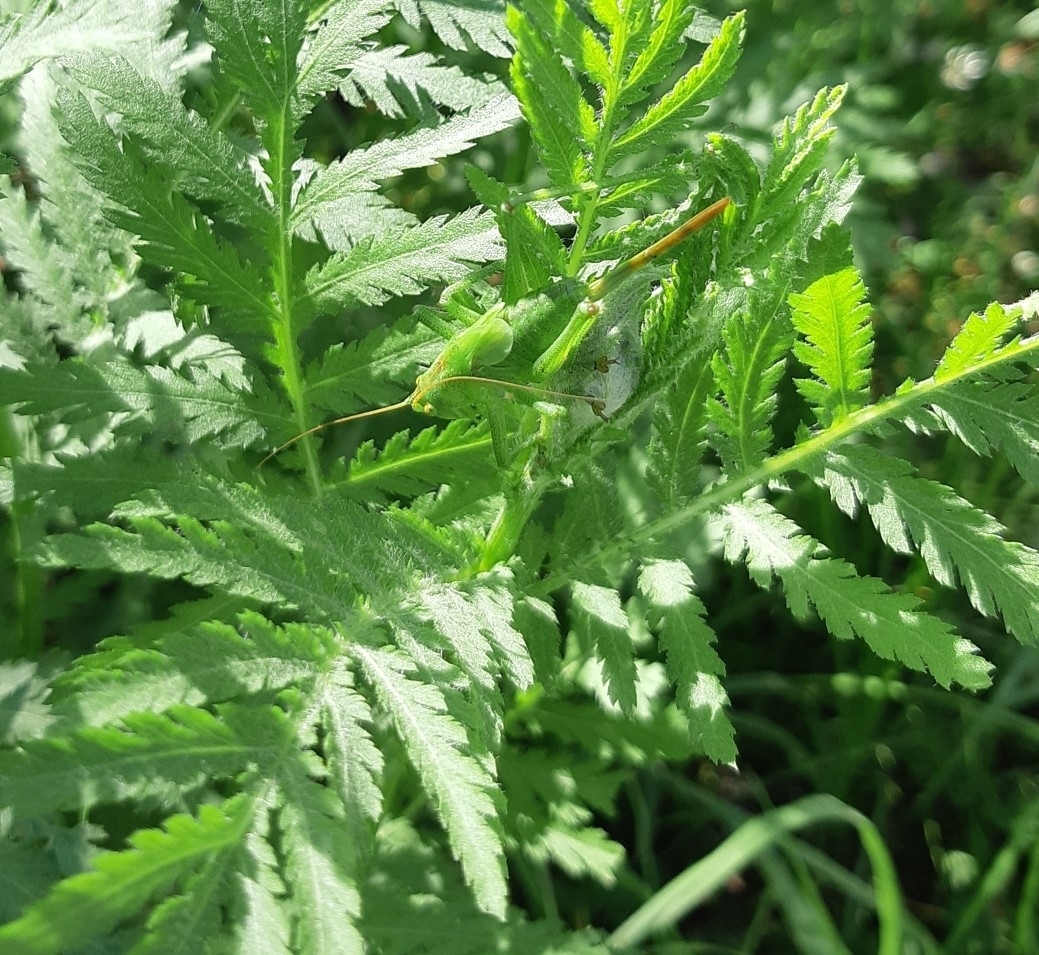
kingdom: Animalia
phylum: Arthropoda
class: Insecta
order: Orthoptera
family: Tettigoniidae
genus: Tettigonia
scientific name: Tettigonia cantans
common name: Upland green bush-cricket
